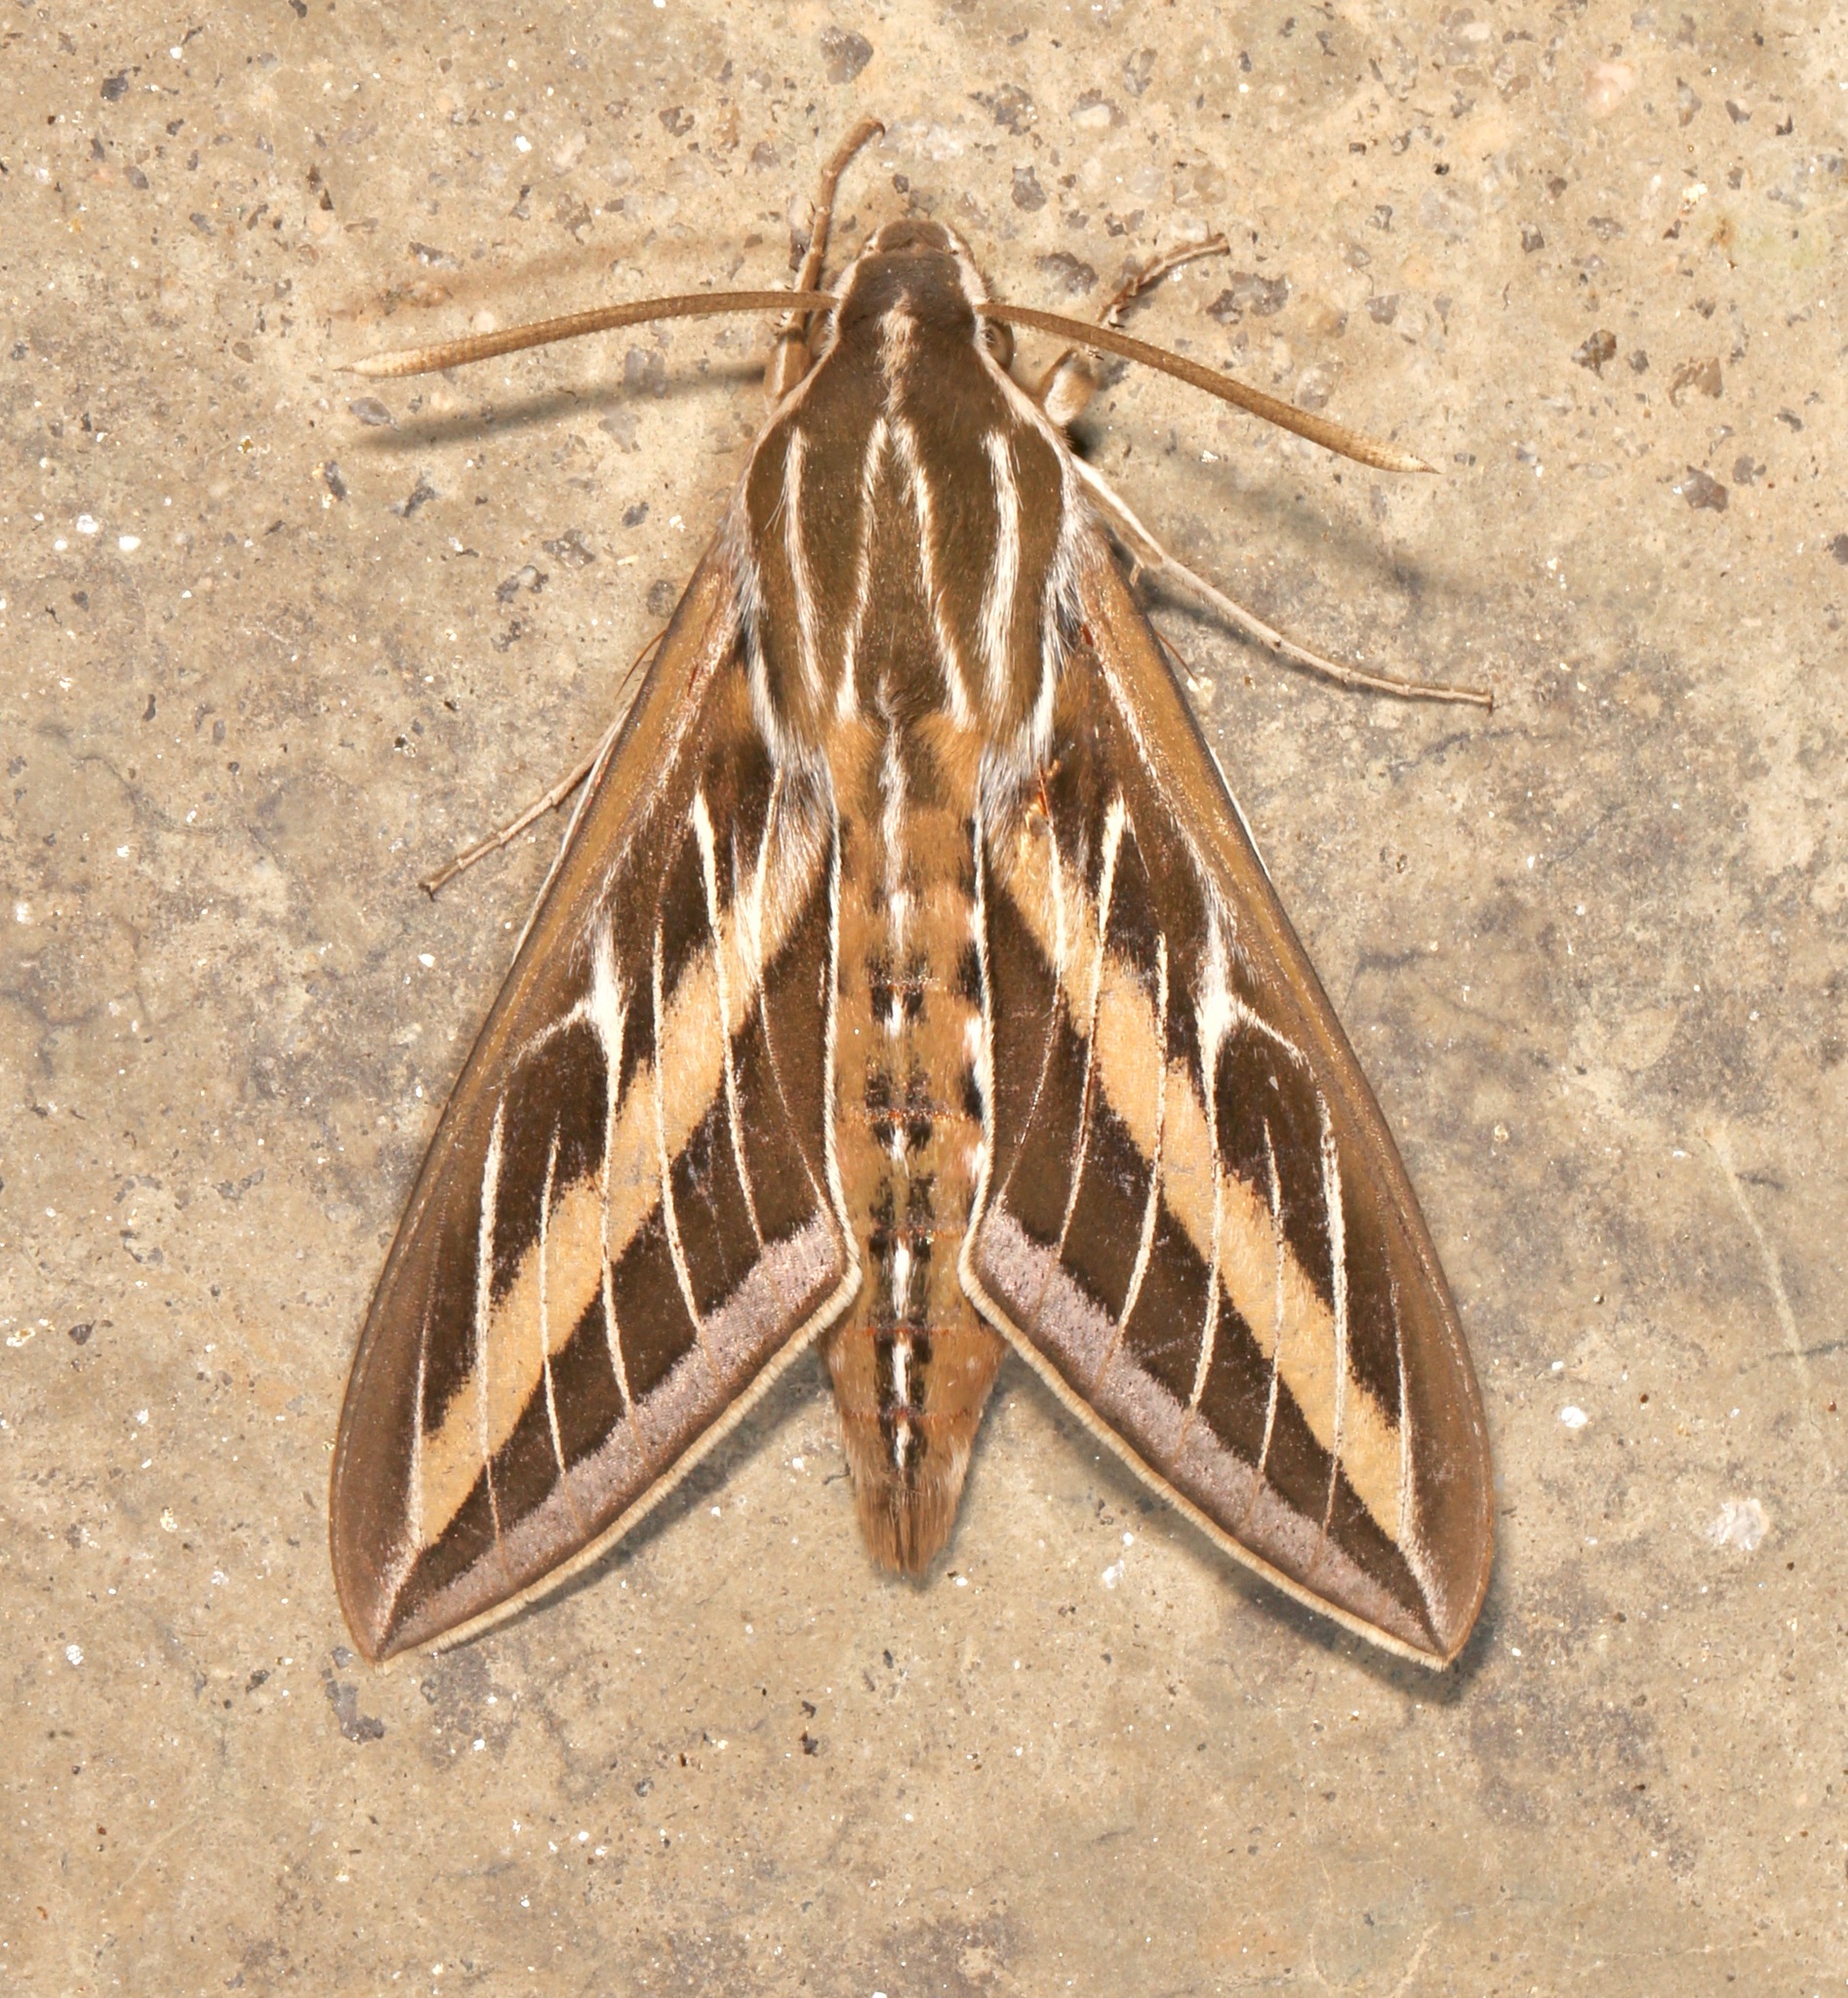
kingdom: Animalia
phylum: Arthropoda
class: Insecta
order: Lepidoptera
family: Sphingidae
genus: Hyles
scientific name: Hyles lineata
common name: White-lined sphinx
